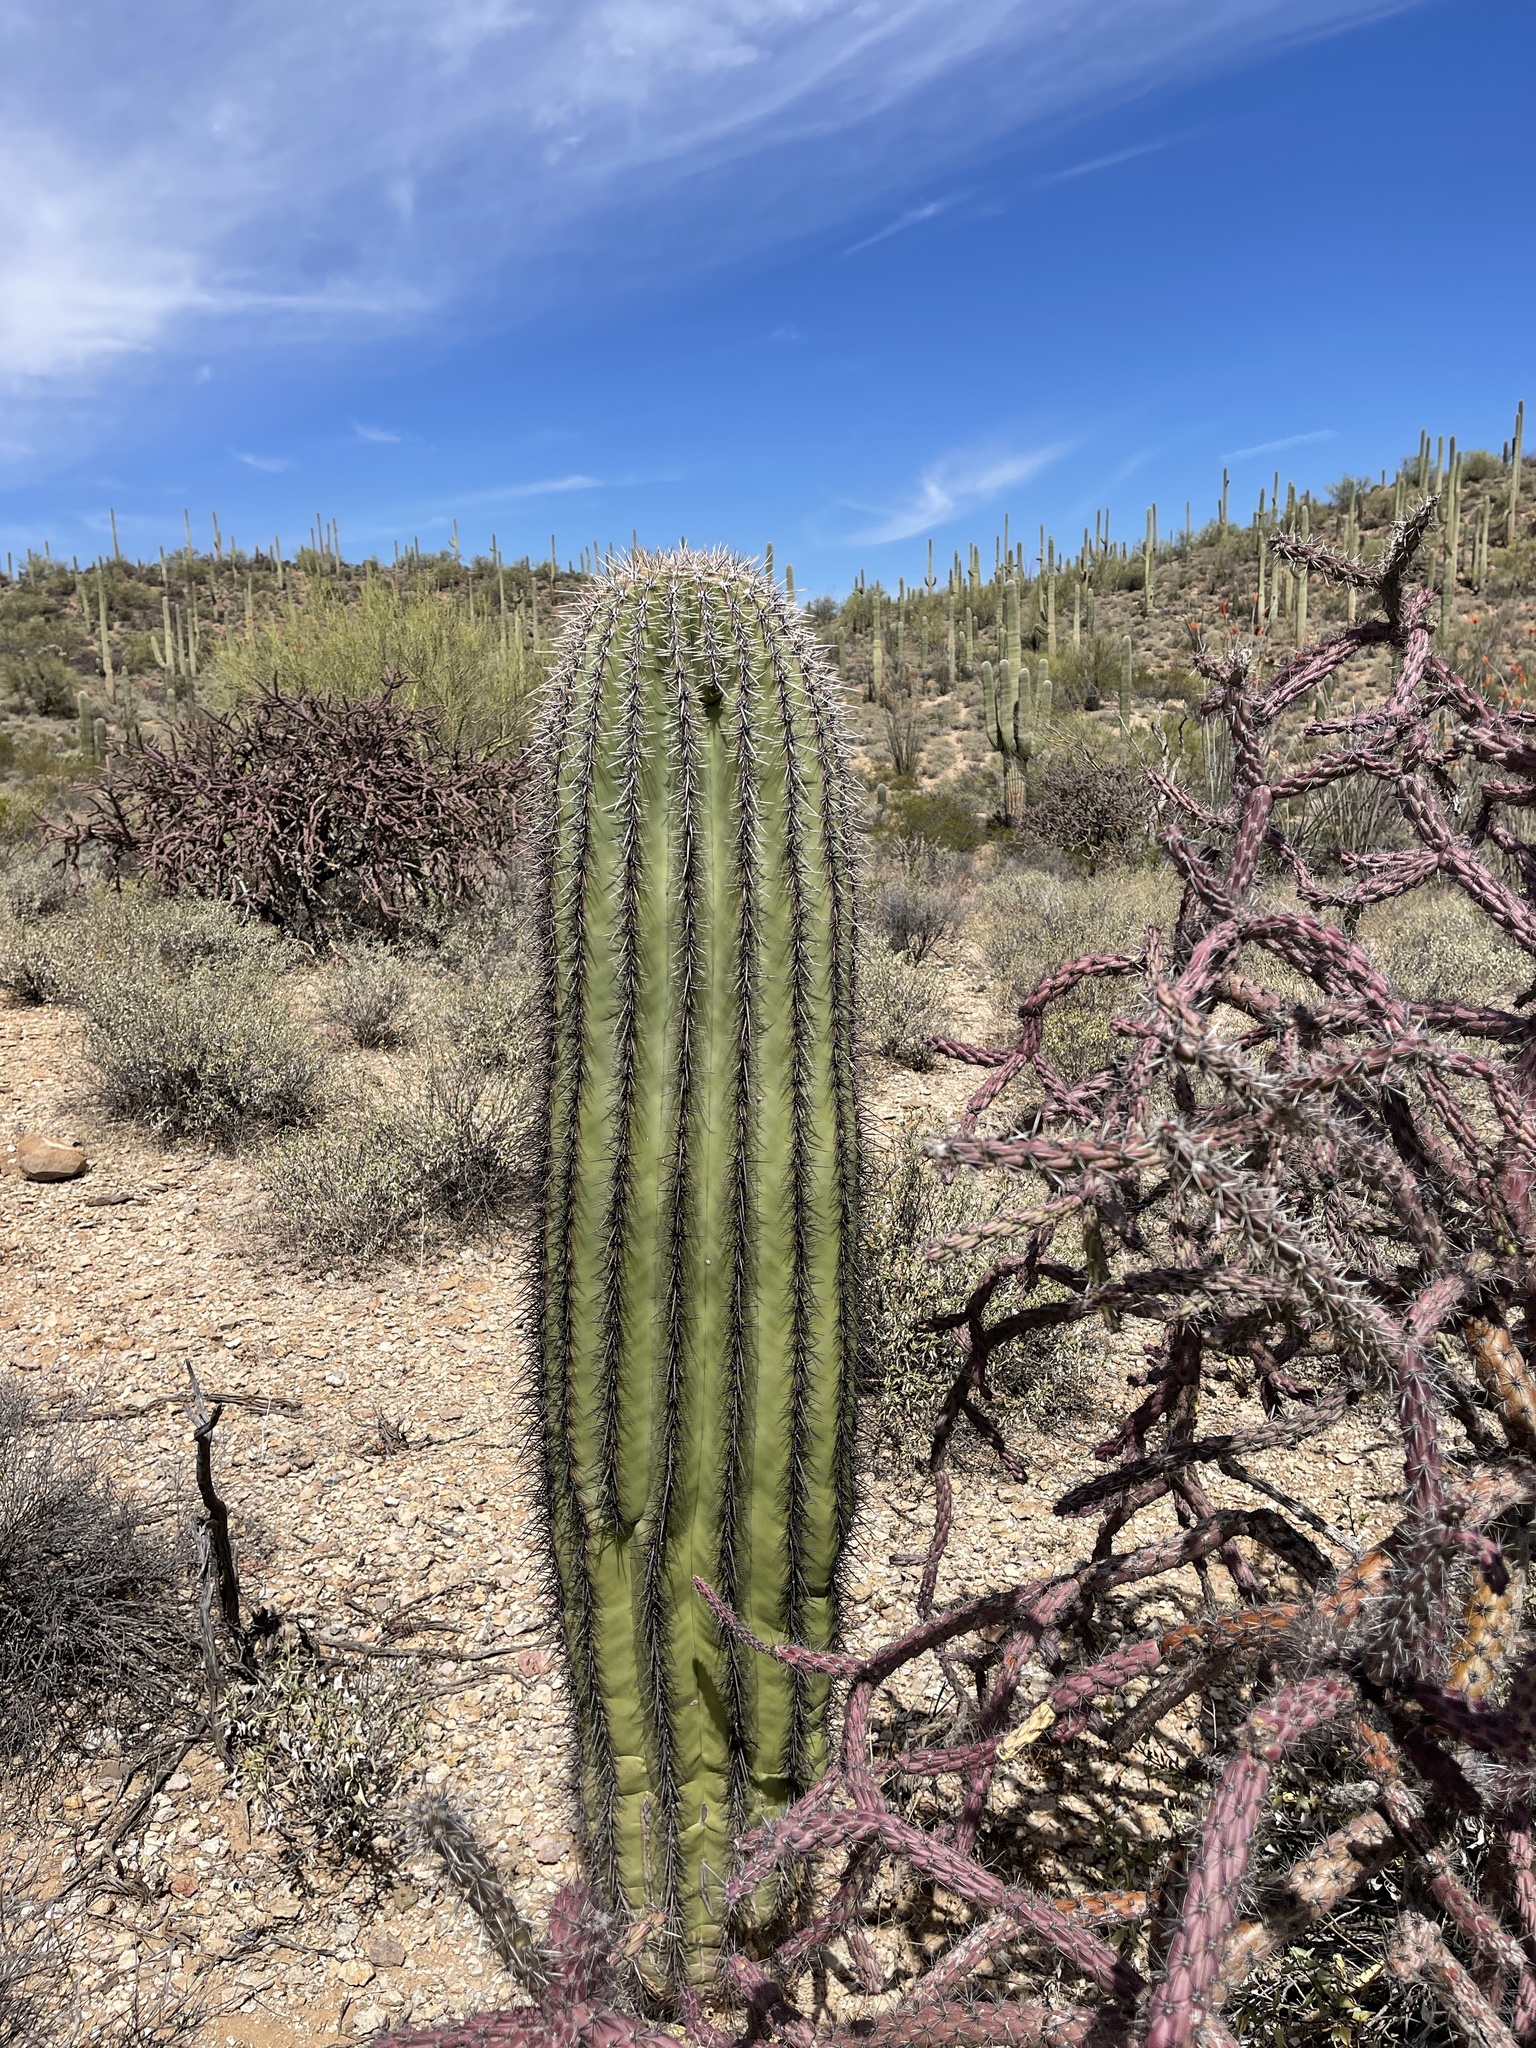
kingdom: Plantae
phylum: Tracheophyta
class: Magnoliopsida
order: Caryophyllales
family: Cactaceae
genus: Carnegiea
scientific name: Carnegiea gigantea
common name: Saguaro
